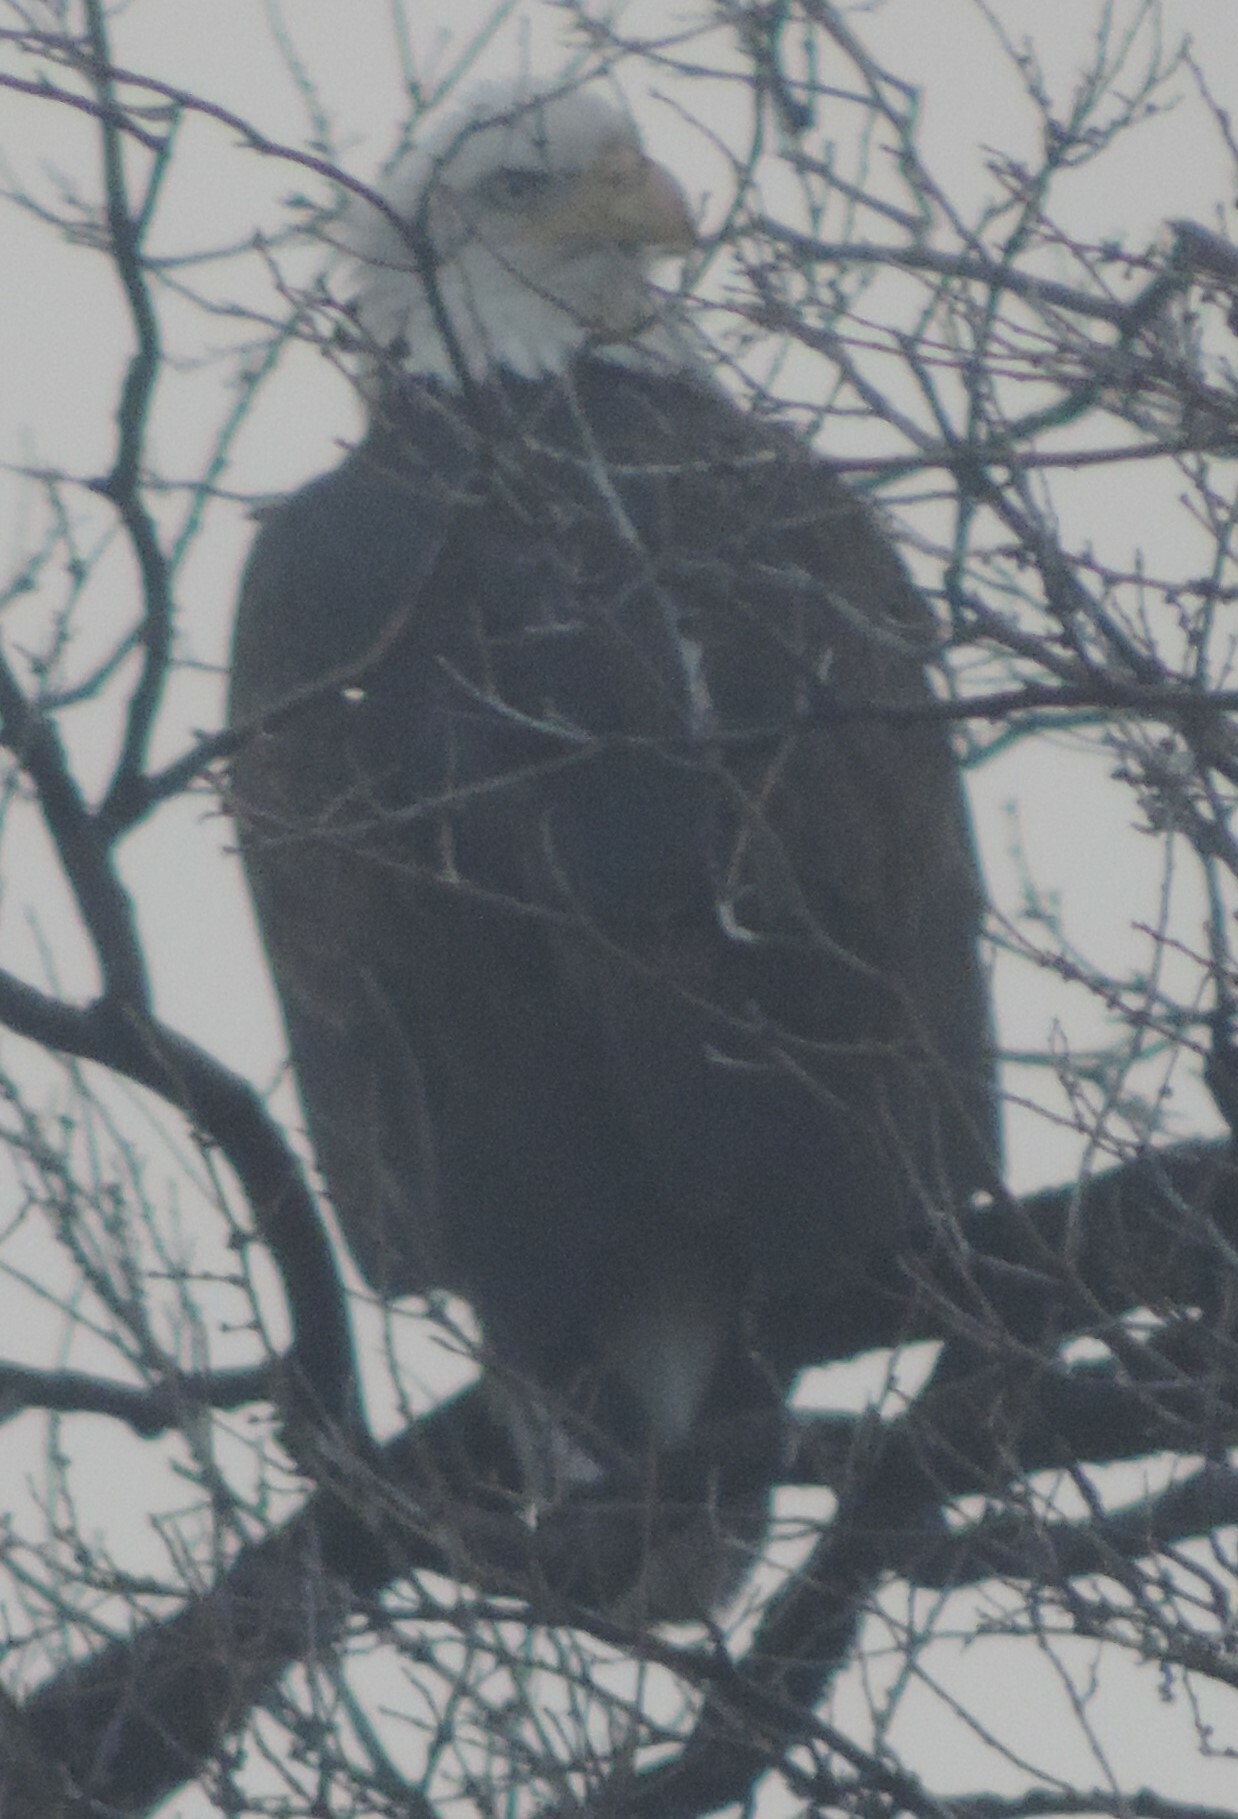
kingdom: Animalia
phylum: Chordata
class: Aves
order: Accipitriformes
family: Accipitridae
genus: Haliaeetus
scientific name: Haliaeetus leucocephalus
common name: Bald eagle
